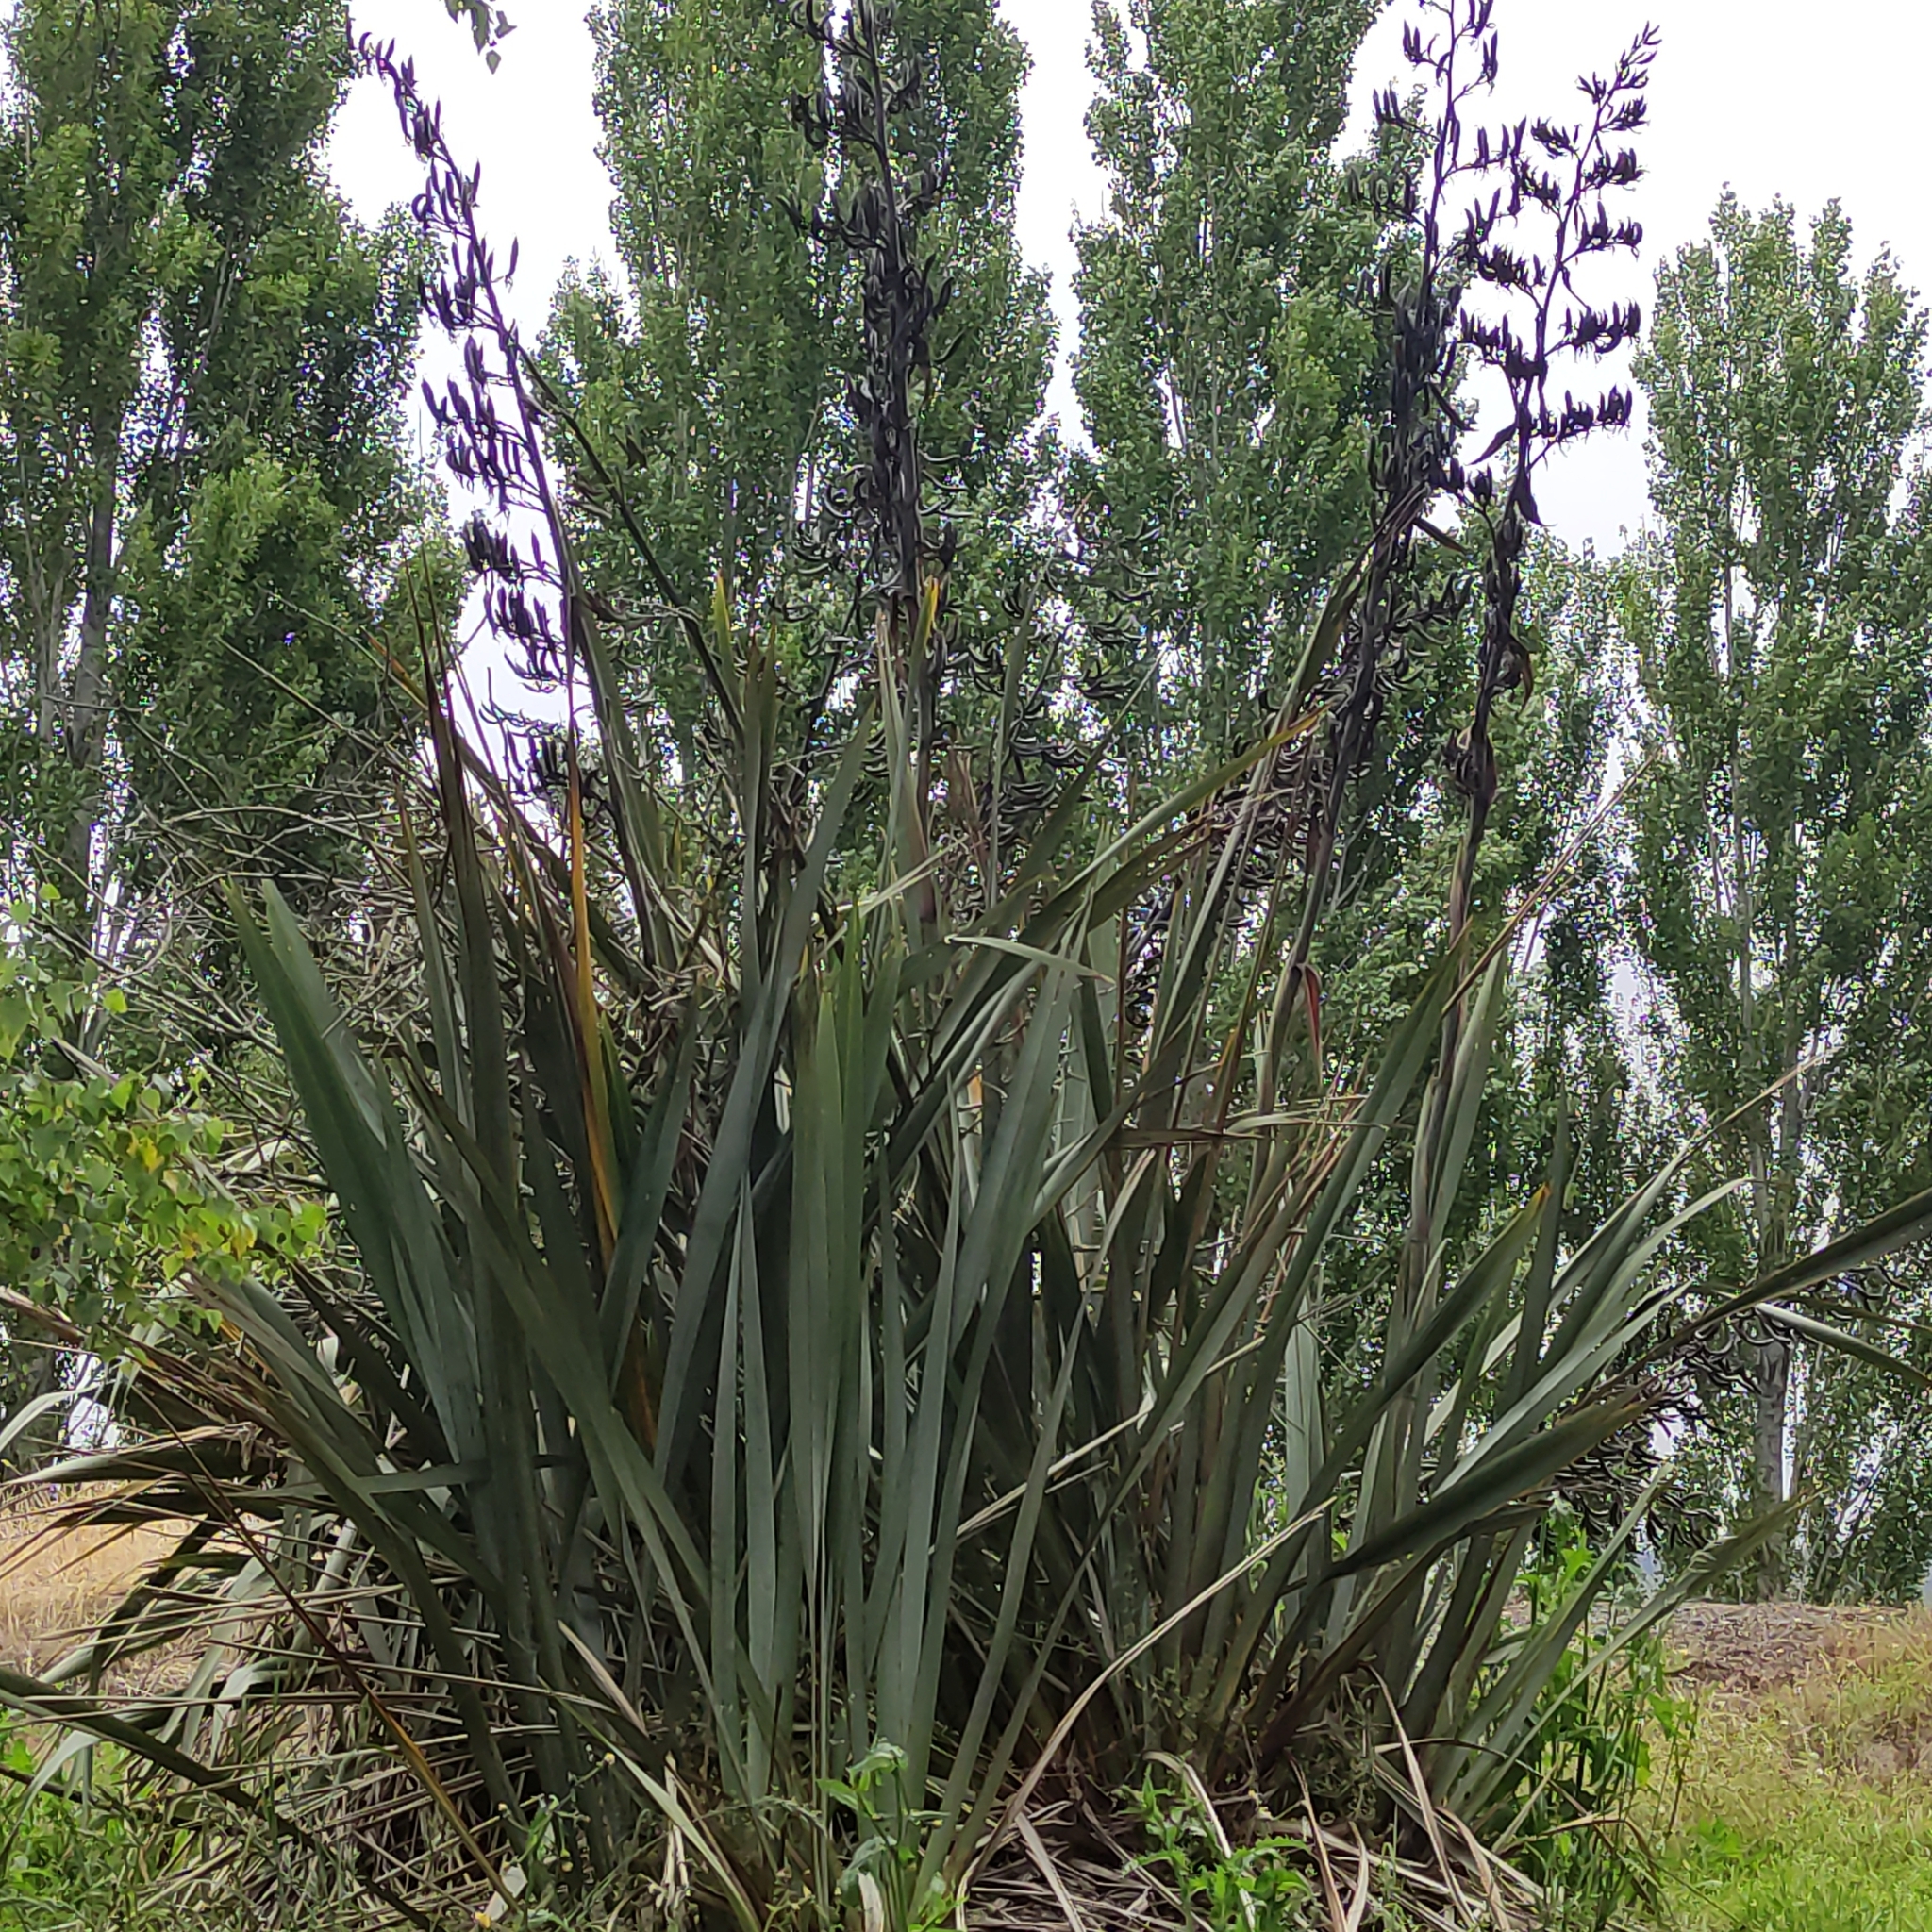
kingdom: Plantae
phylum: Tracheophyta
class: Liliopsida
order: Asparagales
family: Asphodelaceae
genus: Phormium
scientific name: Phormium tenax
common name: New zealand flax
